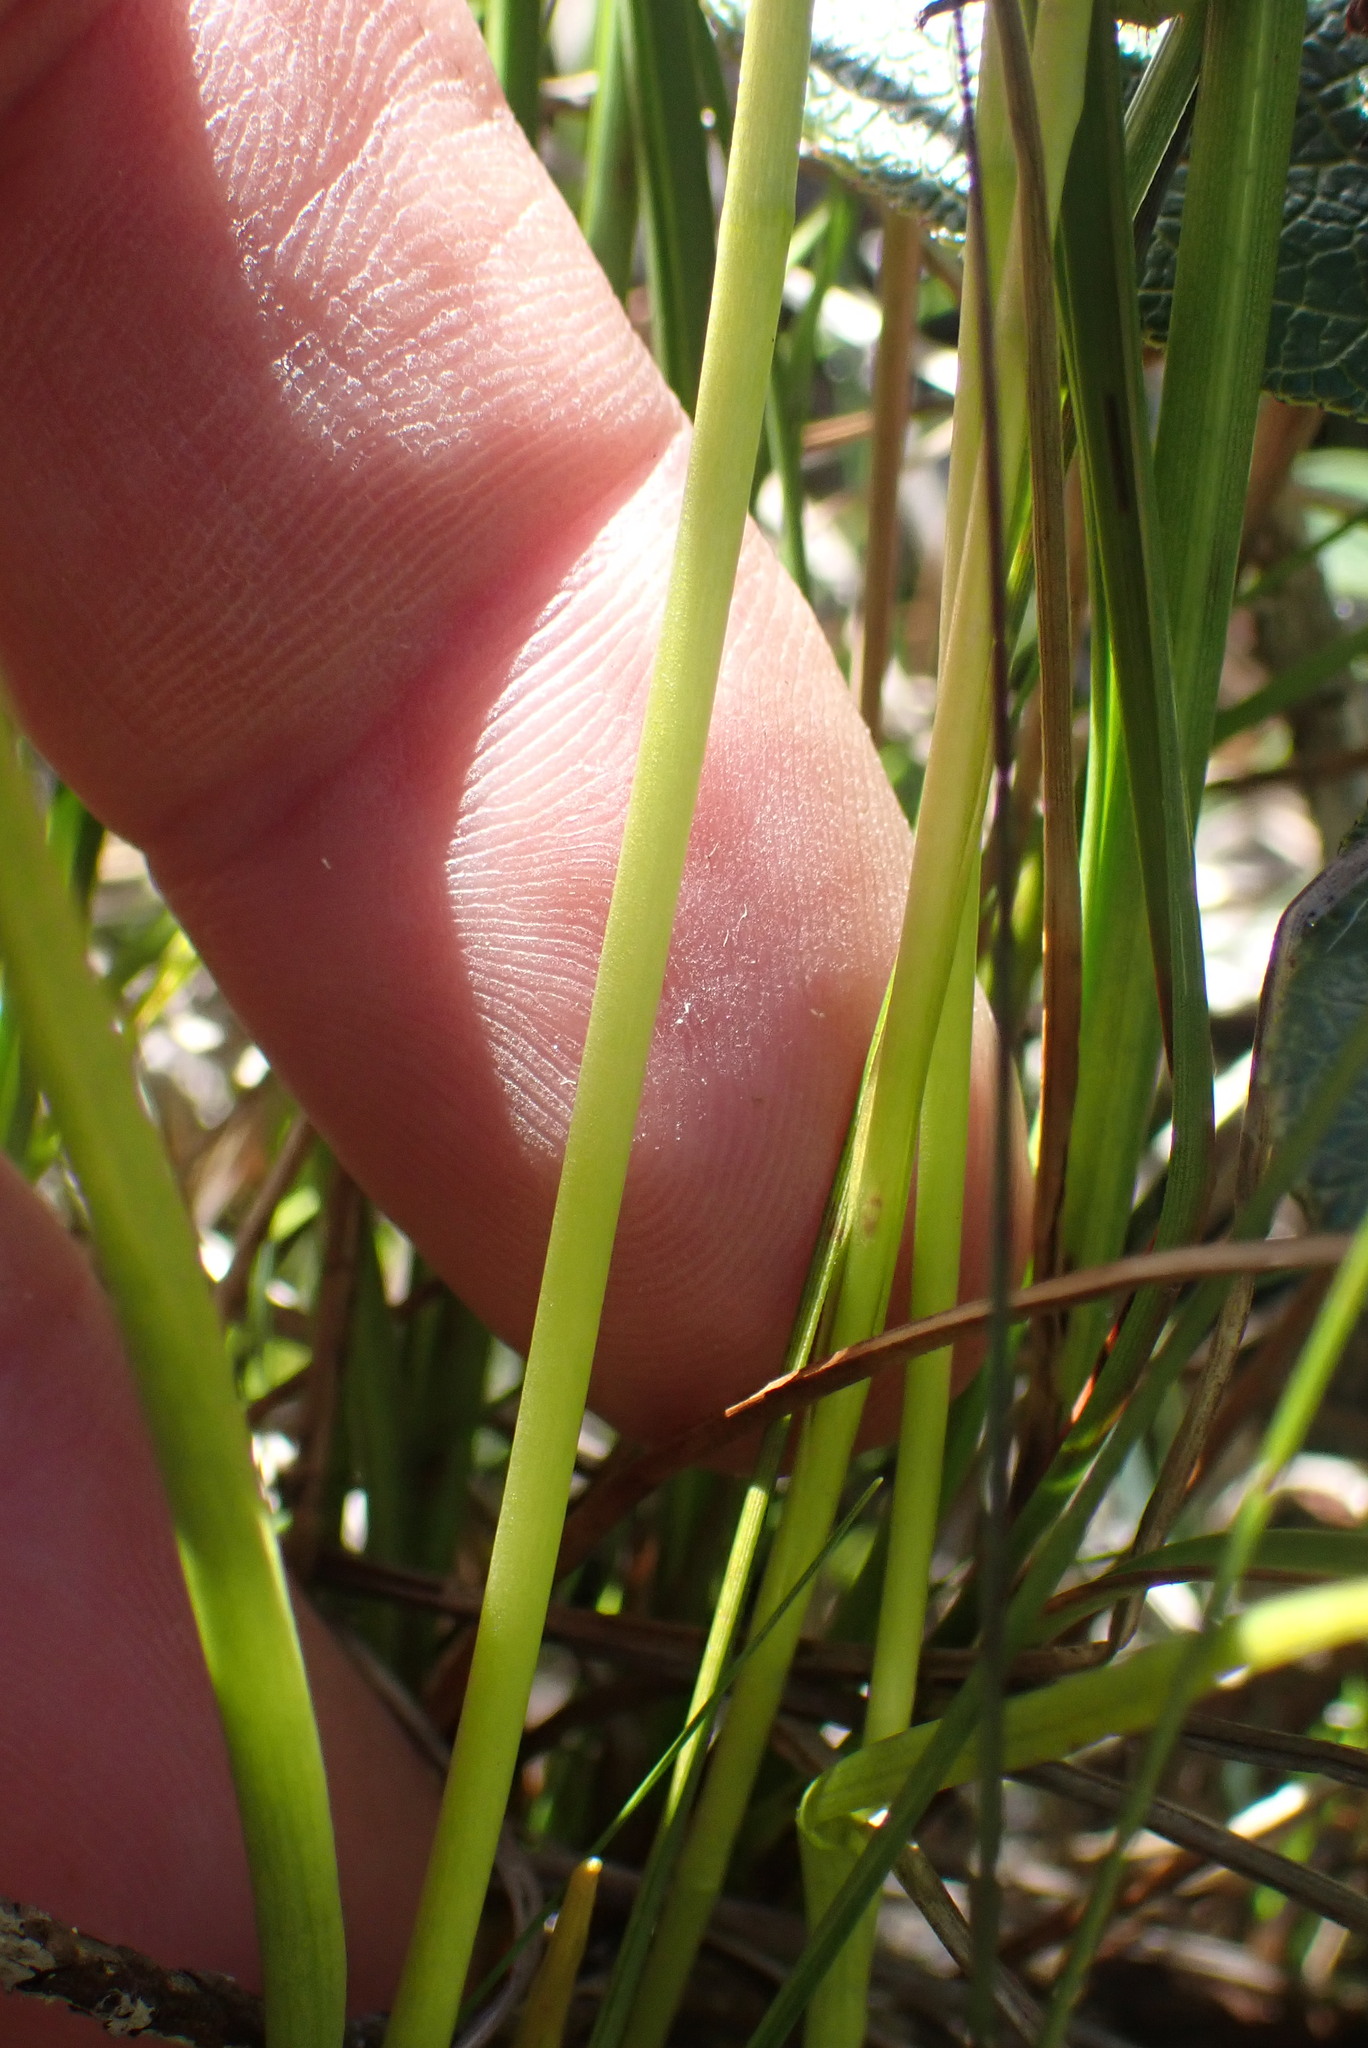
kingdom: Plantae
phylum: Tracheophyta
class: Liliopsida
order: Asparagales
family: Orchidaceae
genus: Spiranthes
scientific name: Spiranthes romanzoffiana
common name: Irish lady's-tresses
